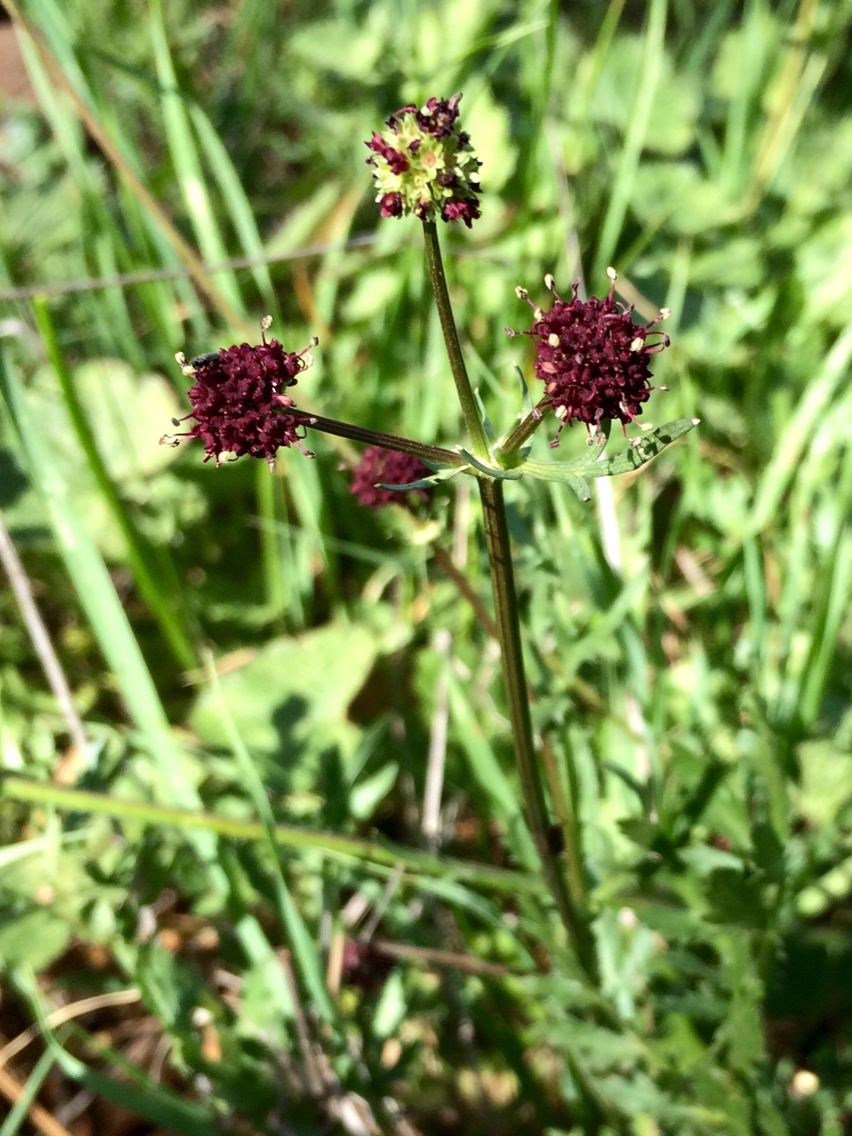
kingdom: Plantae
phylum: Tracheophyta
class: Magnoliopsida
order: Apiales
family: Apiaceae
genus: Sanicula
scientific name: Sanicula bipinnatifida
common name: Shoe-buttons
